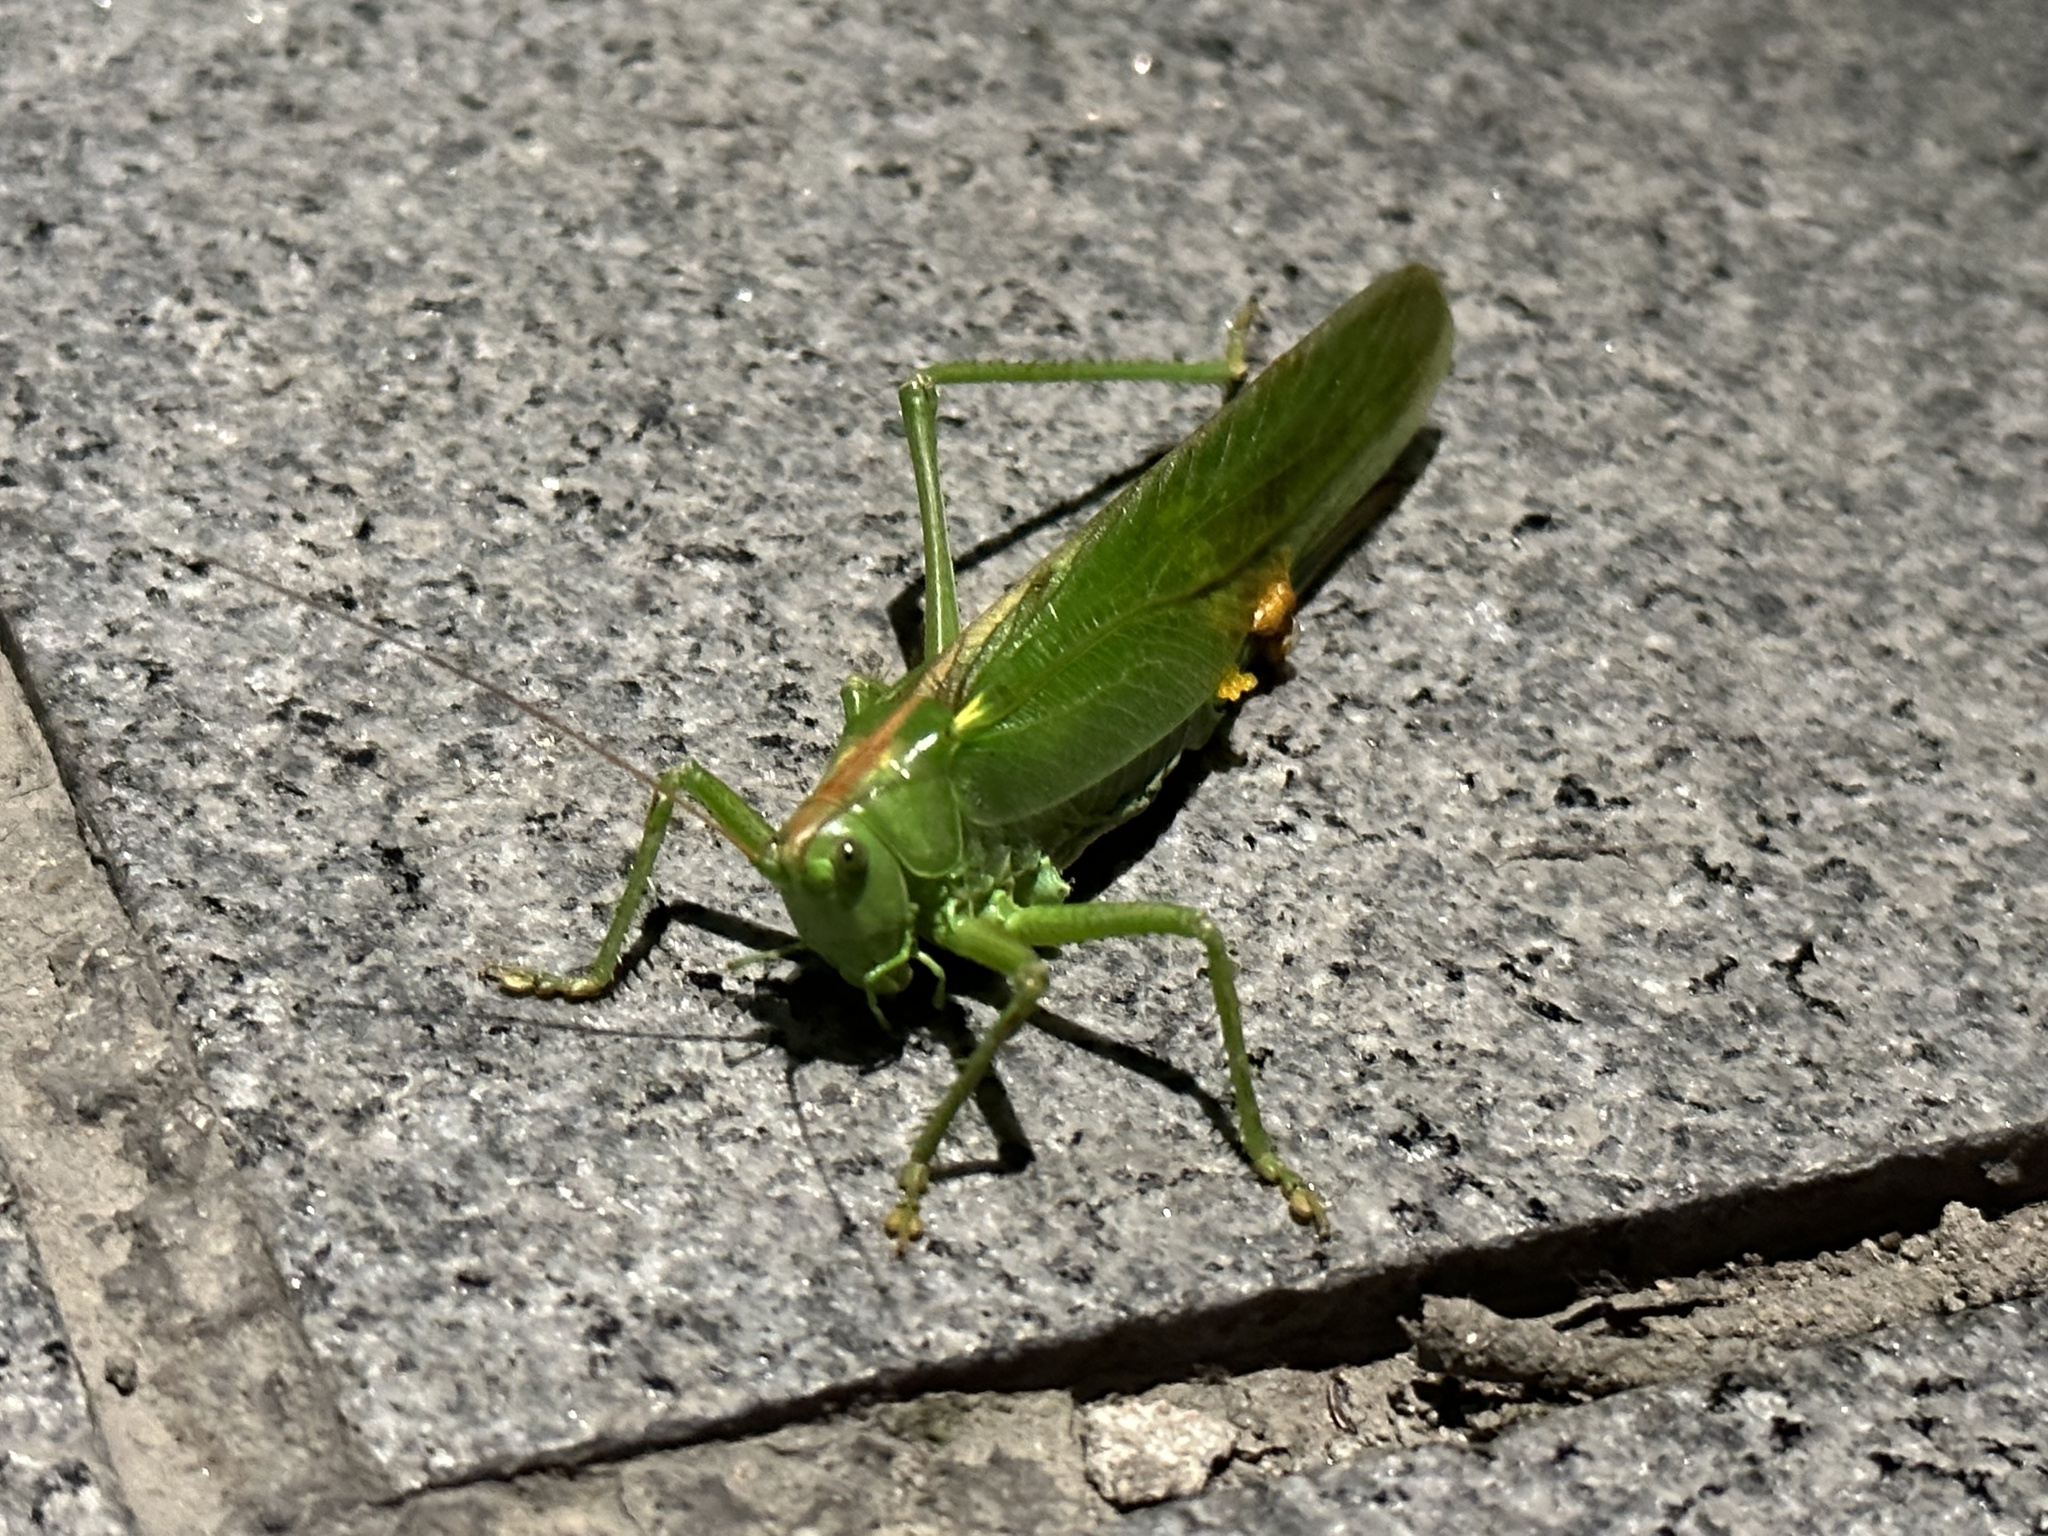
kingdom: Animalia
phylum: Arthropoda
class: Insecta
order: Orthoptera
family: Tettigoniidae
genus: Tettigonia
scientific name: Tettigonia viridissima
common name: Great green bush-cricket
